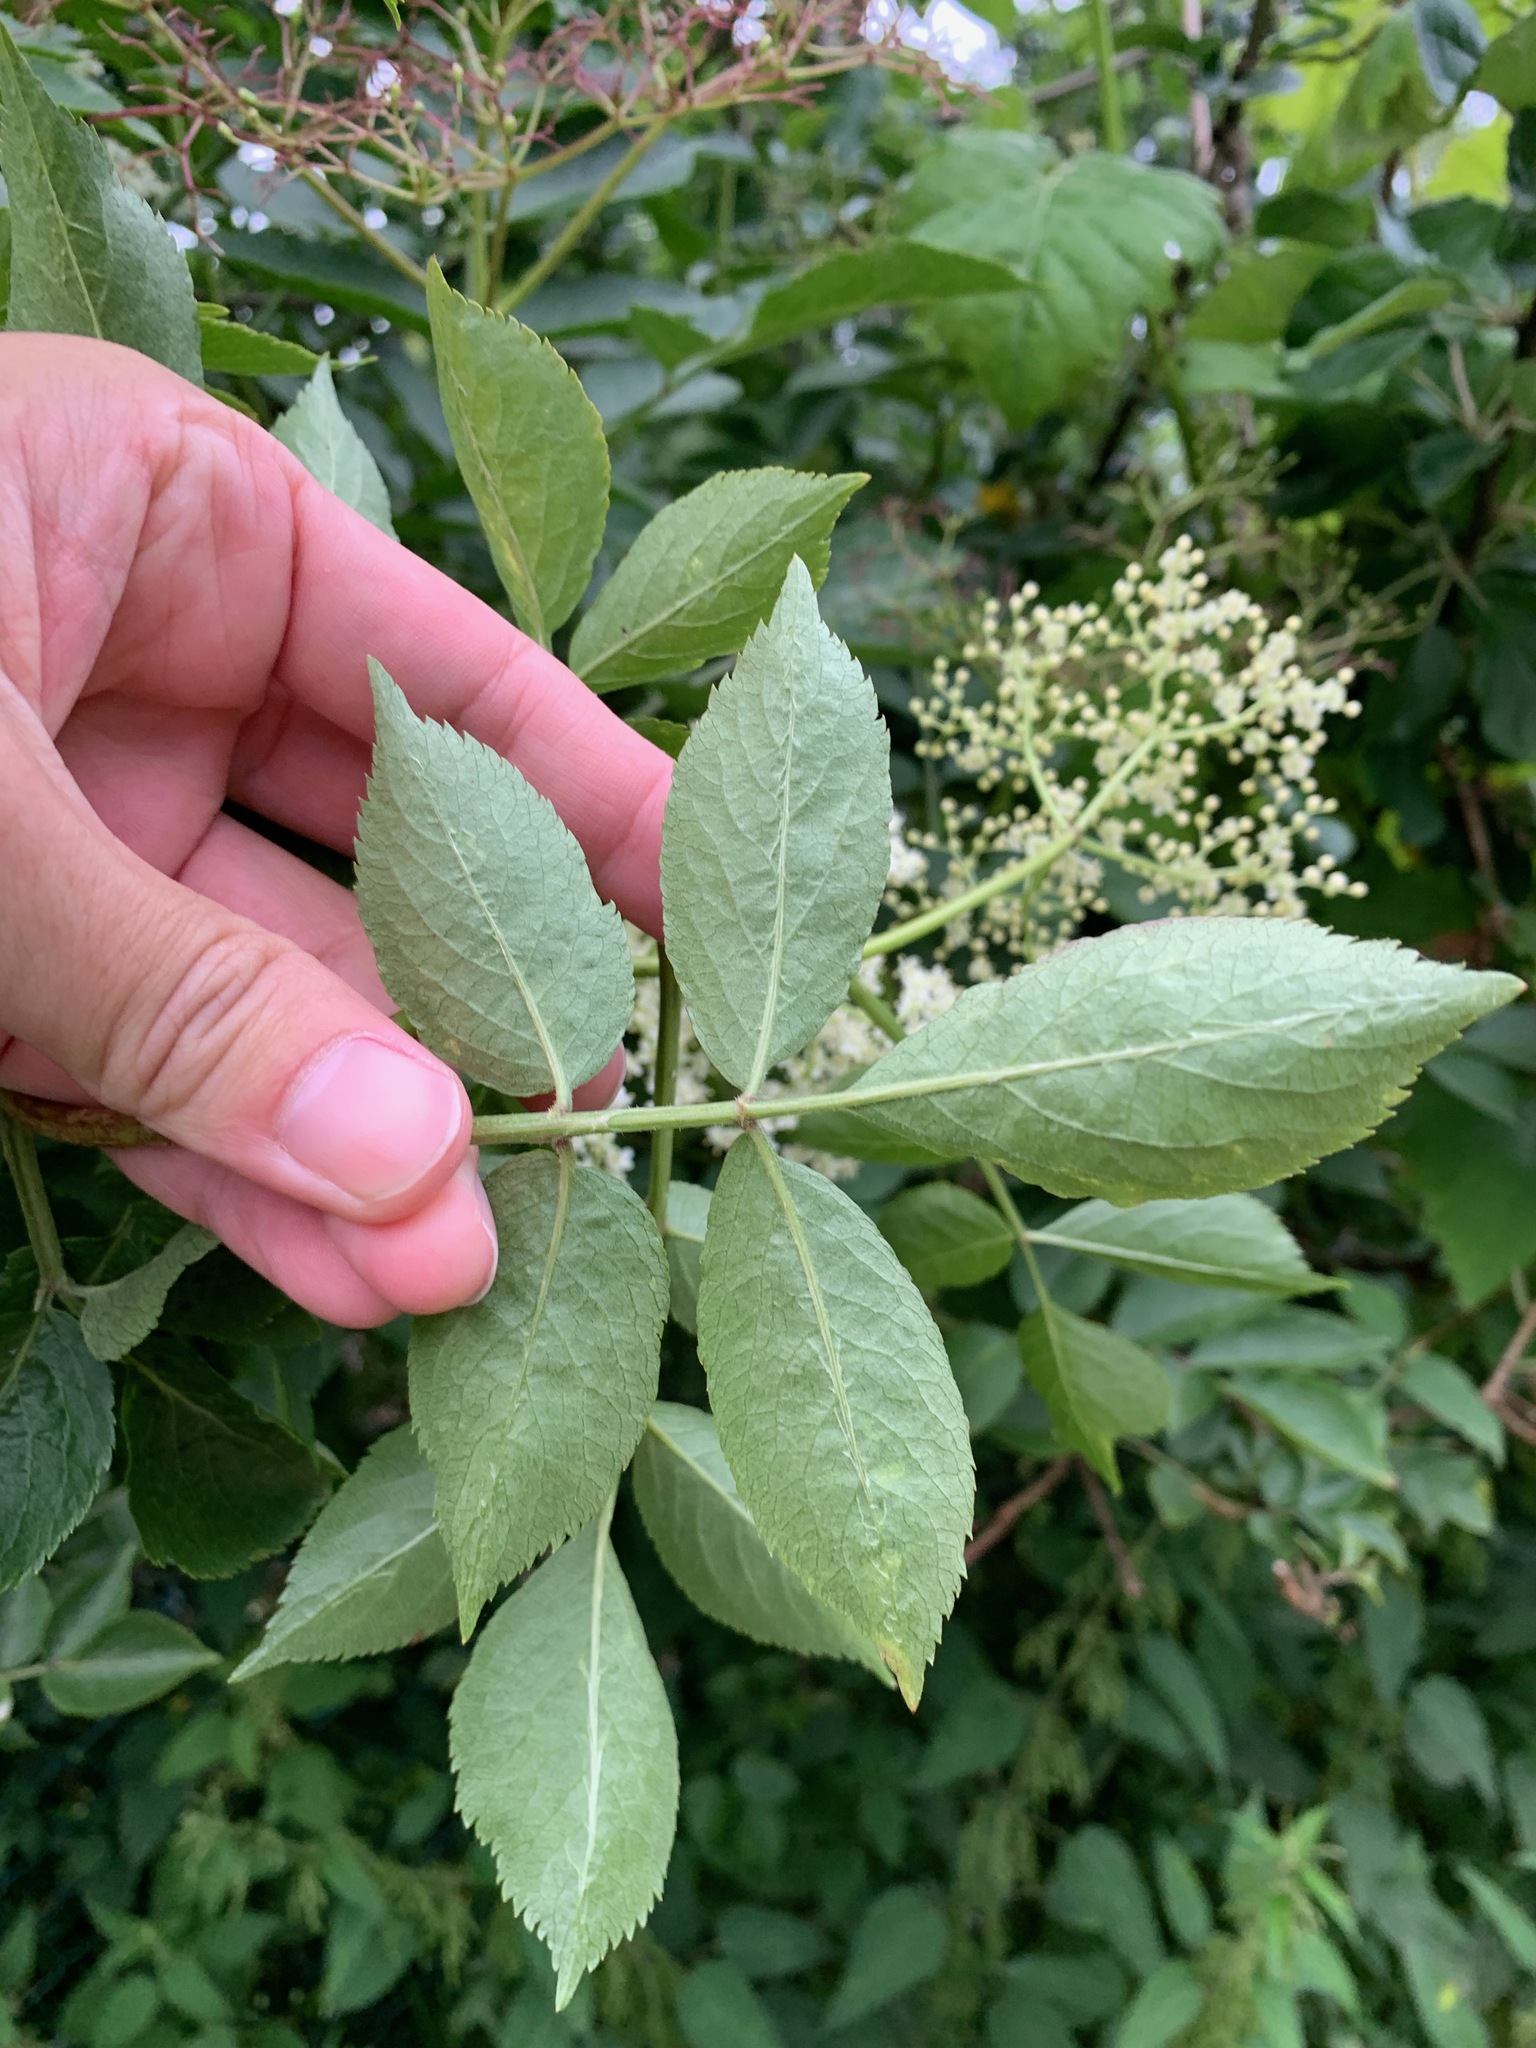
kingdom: Plantae
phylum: Tracheophyta
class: Magnoliopsida
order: Dipsacales
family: Viburnaceae
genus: Sambucus
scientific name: Sambucus nigra
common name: Elder
